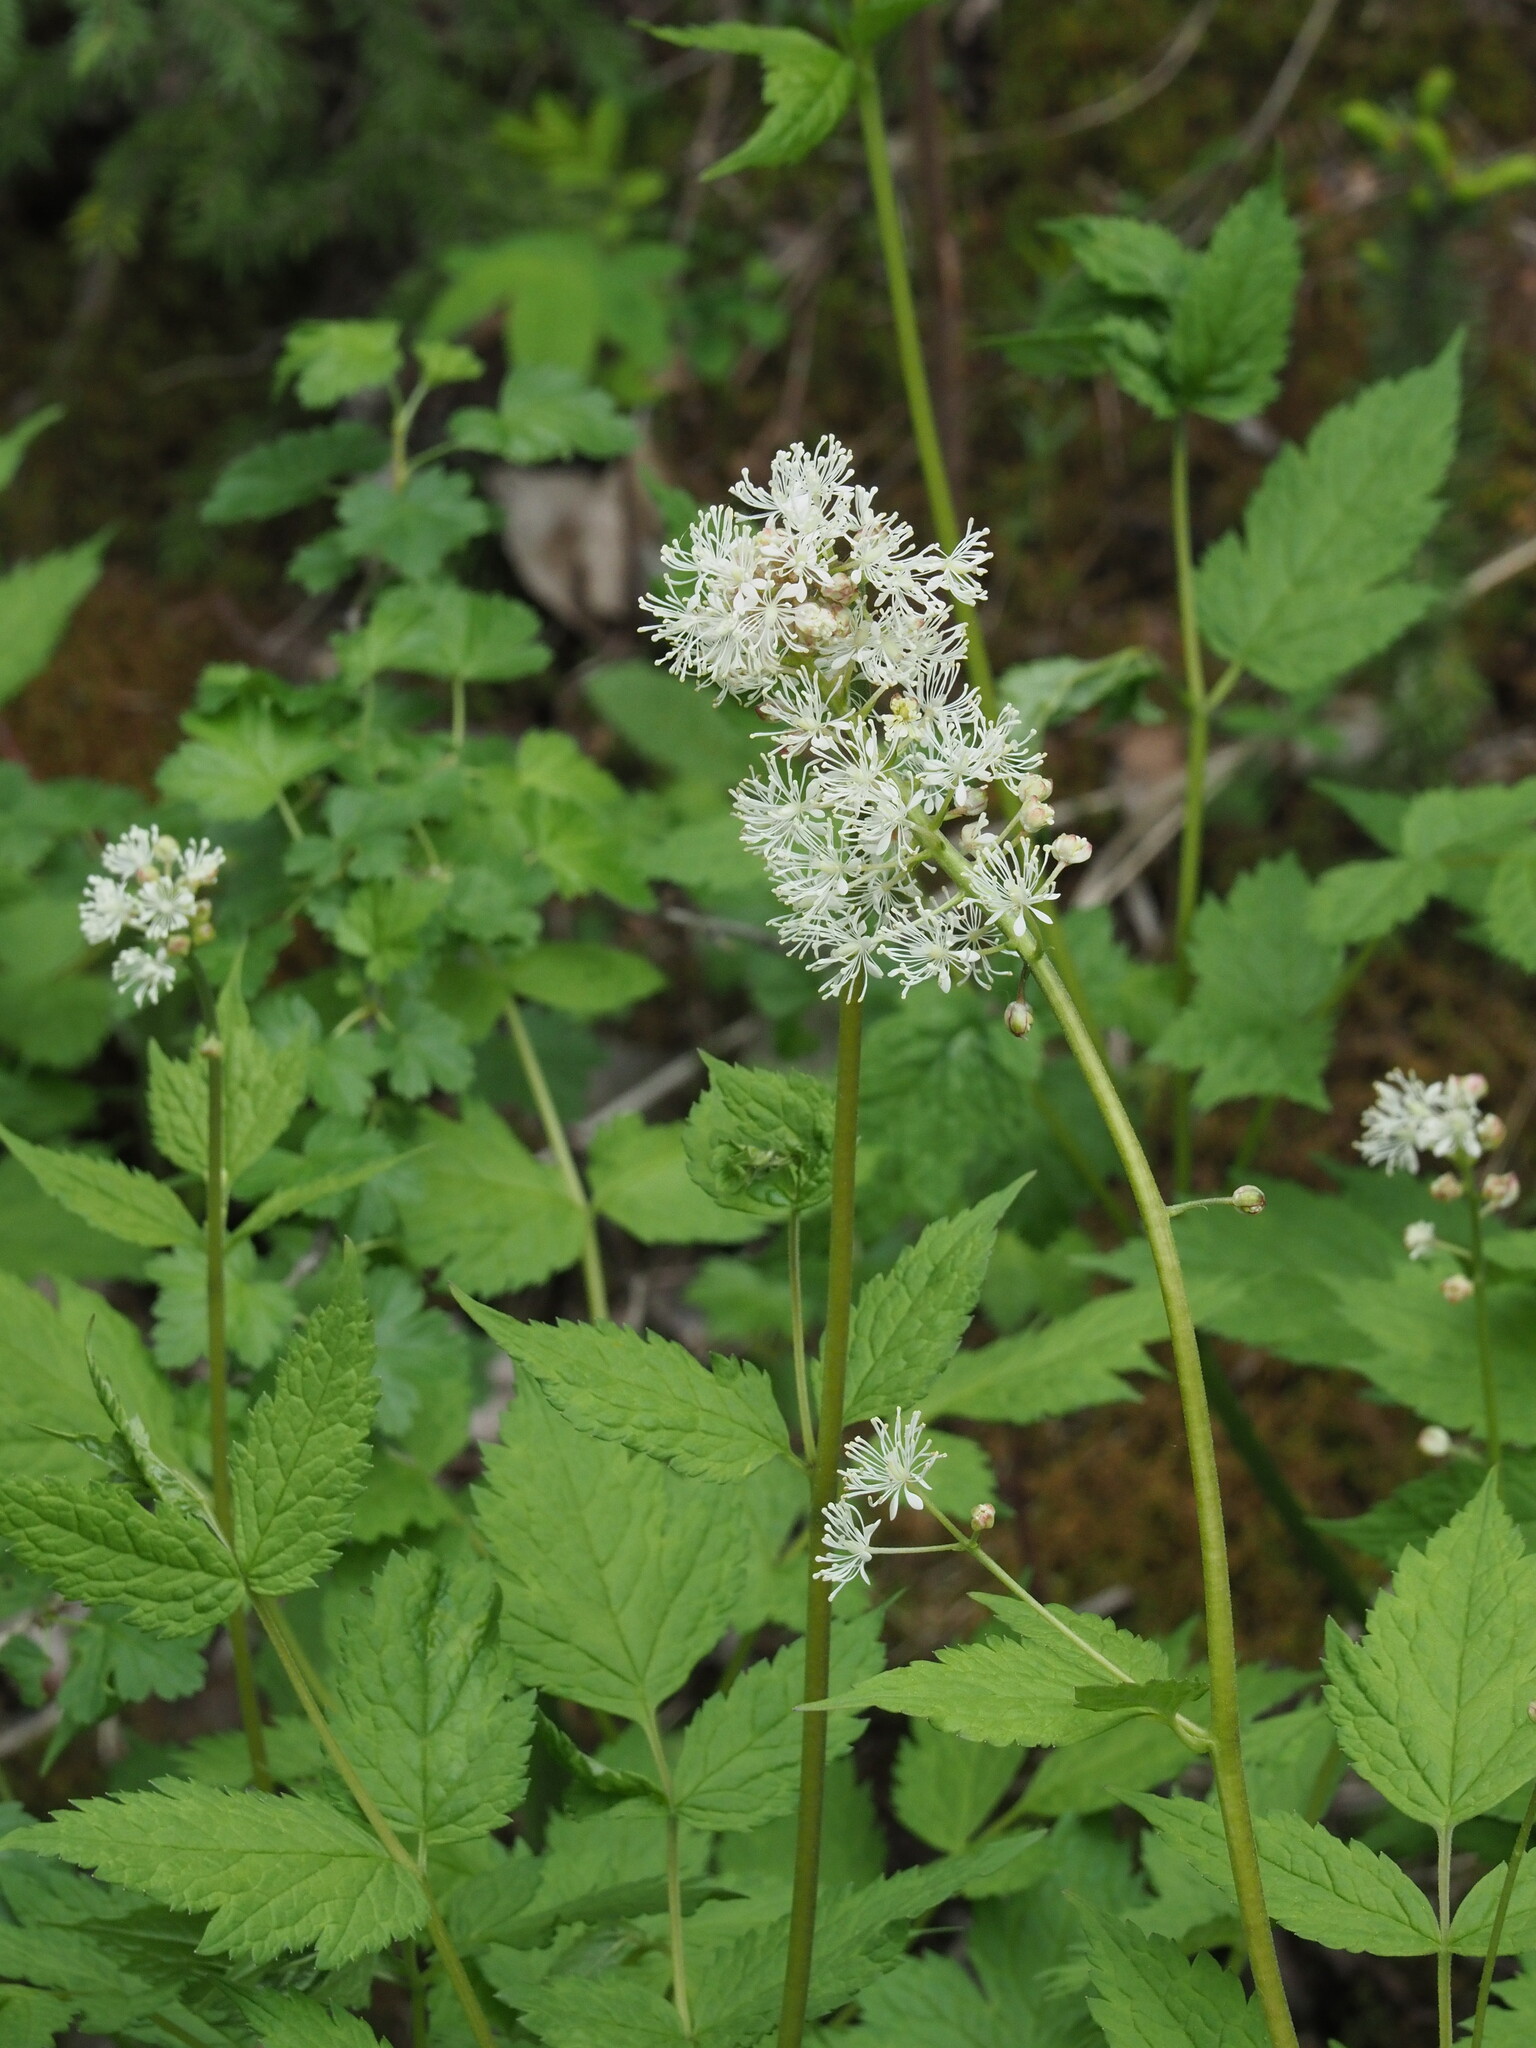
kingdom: Plantae
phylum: Tracheophyta
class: Magnoliopsida
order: Ranunculales
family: Ranunculaceae
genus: Actaea
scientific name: Actaea rubra
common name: Red baneberry
